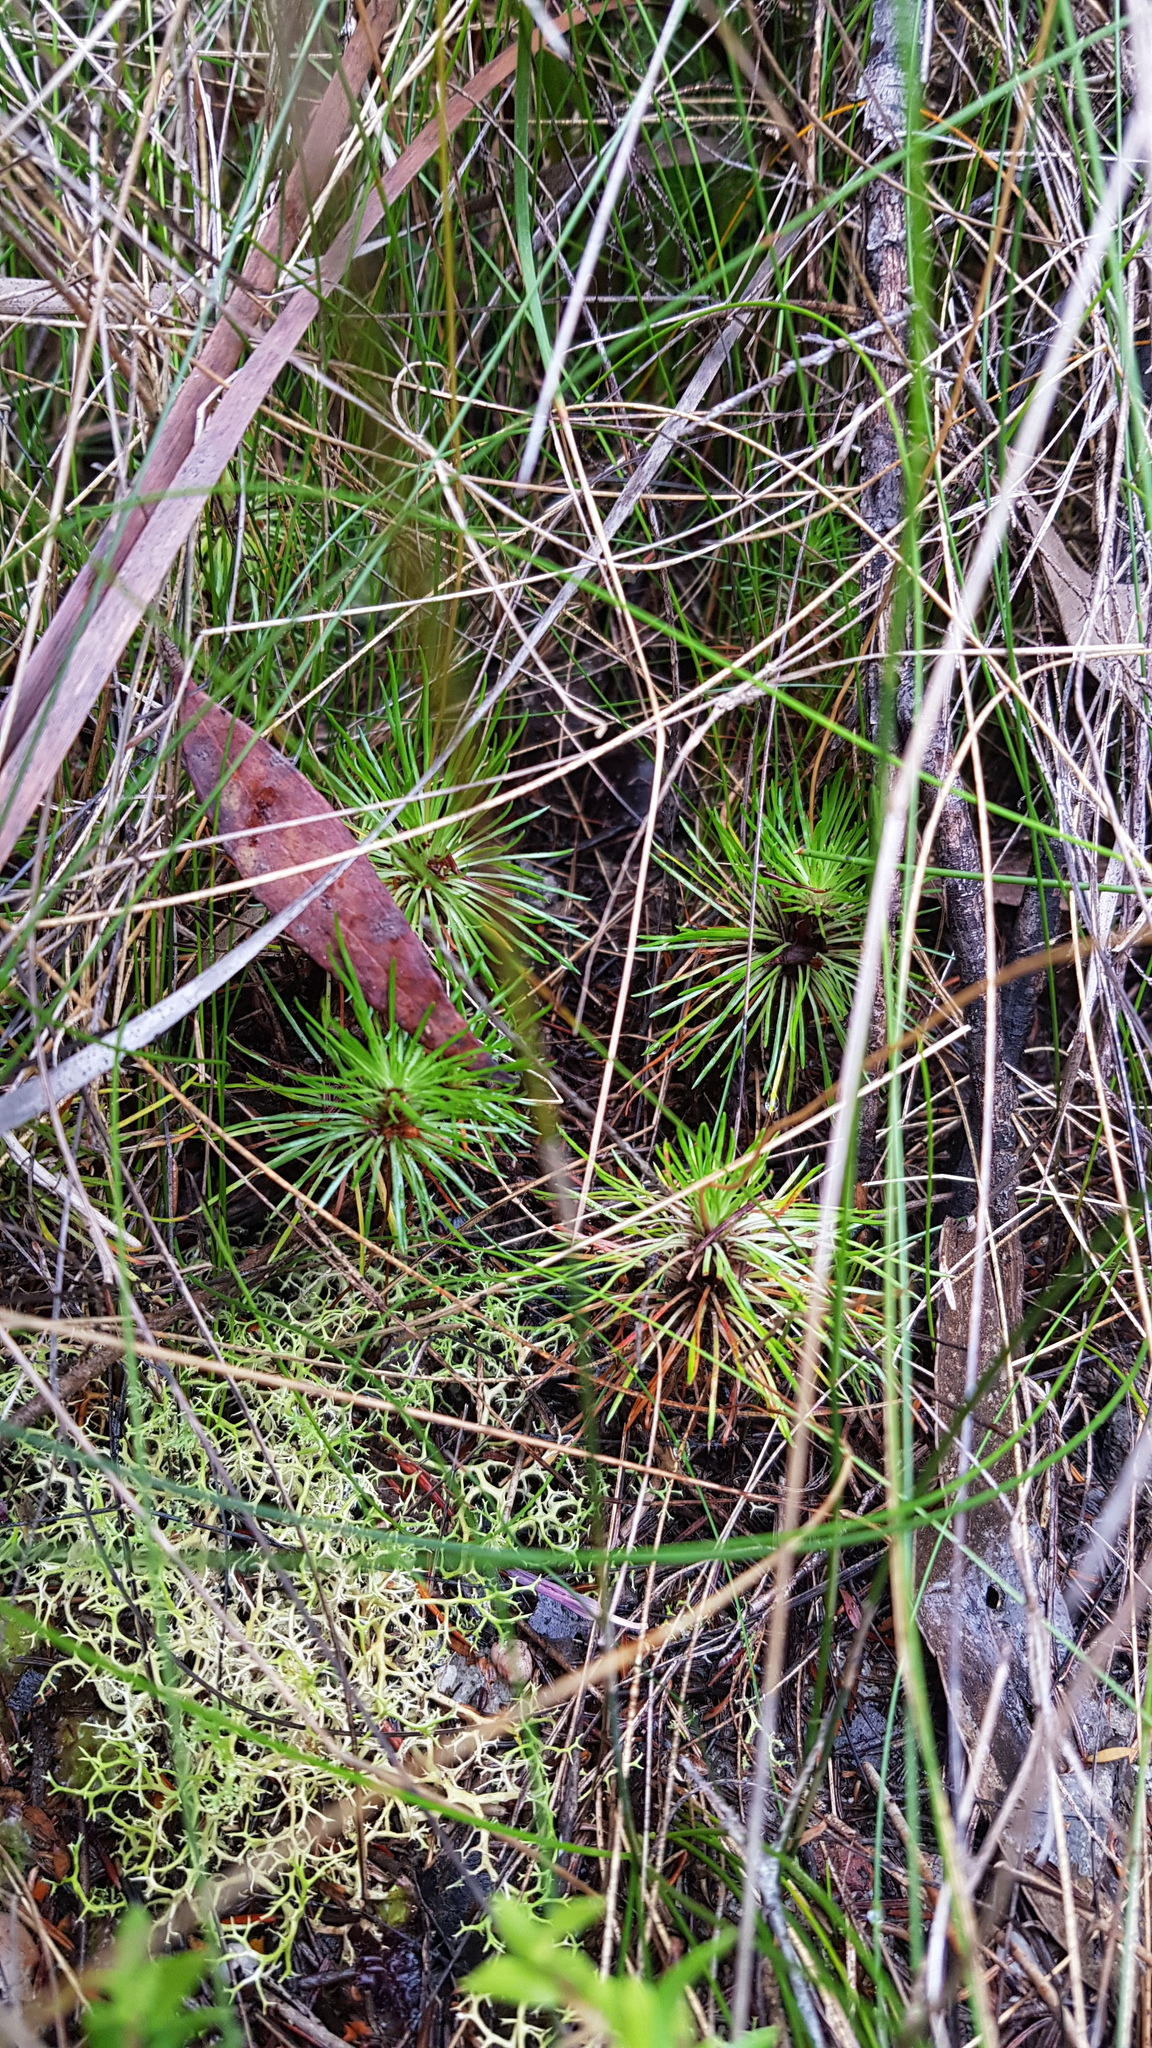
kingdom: Plantae
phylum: Tracheophyta
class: Magnoliopsida
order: Asterales
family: Stylidiaceae
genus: Stylidium
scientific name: Stylidium lineare
